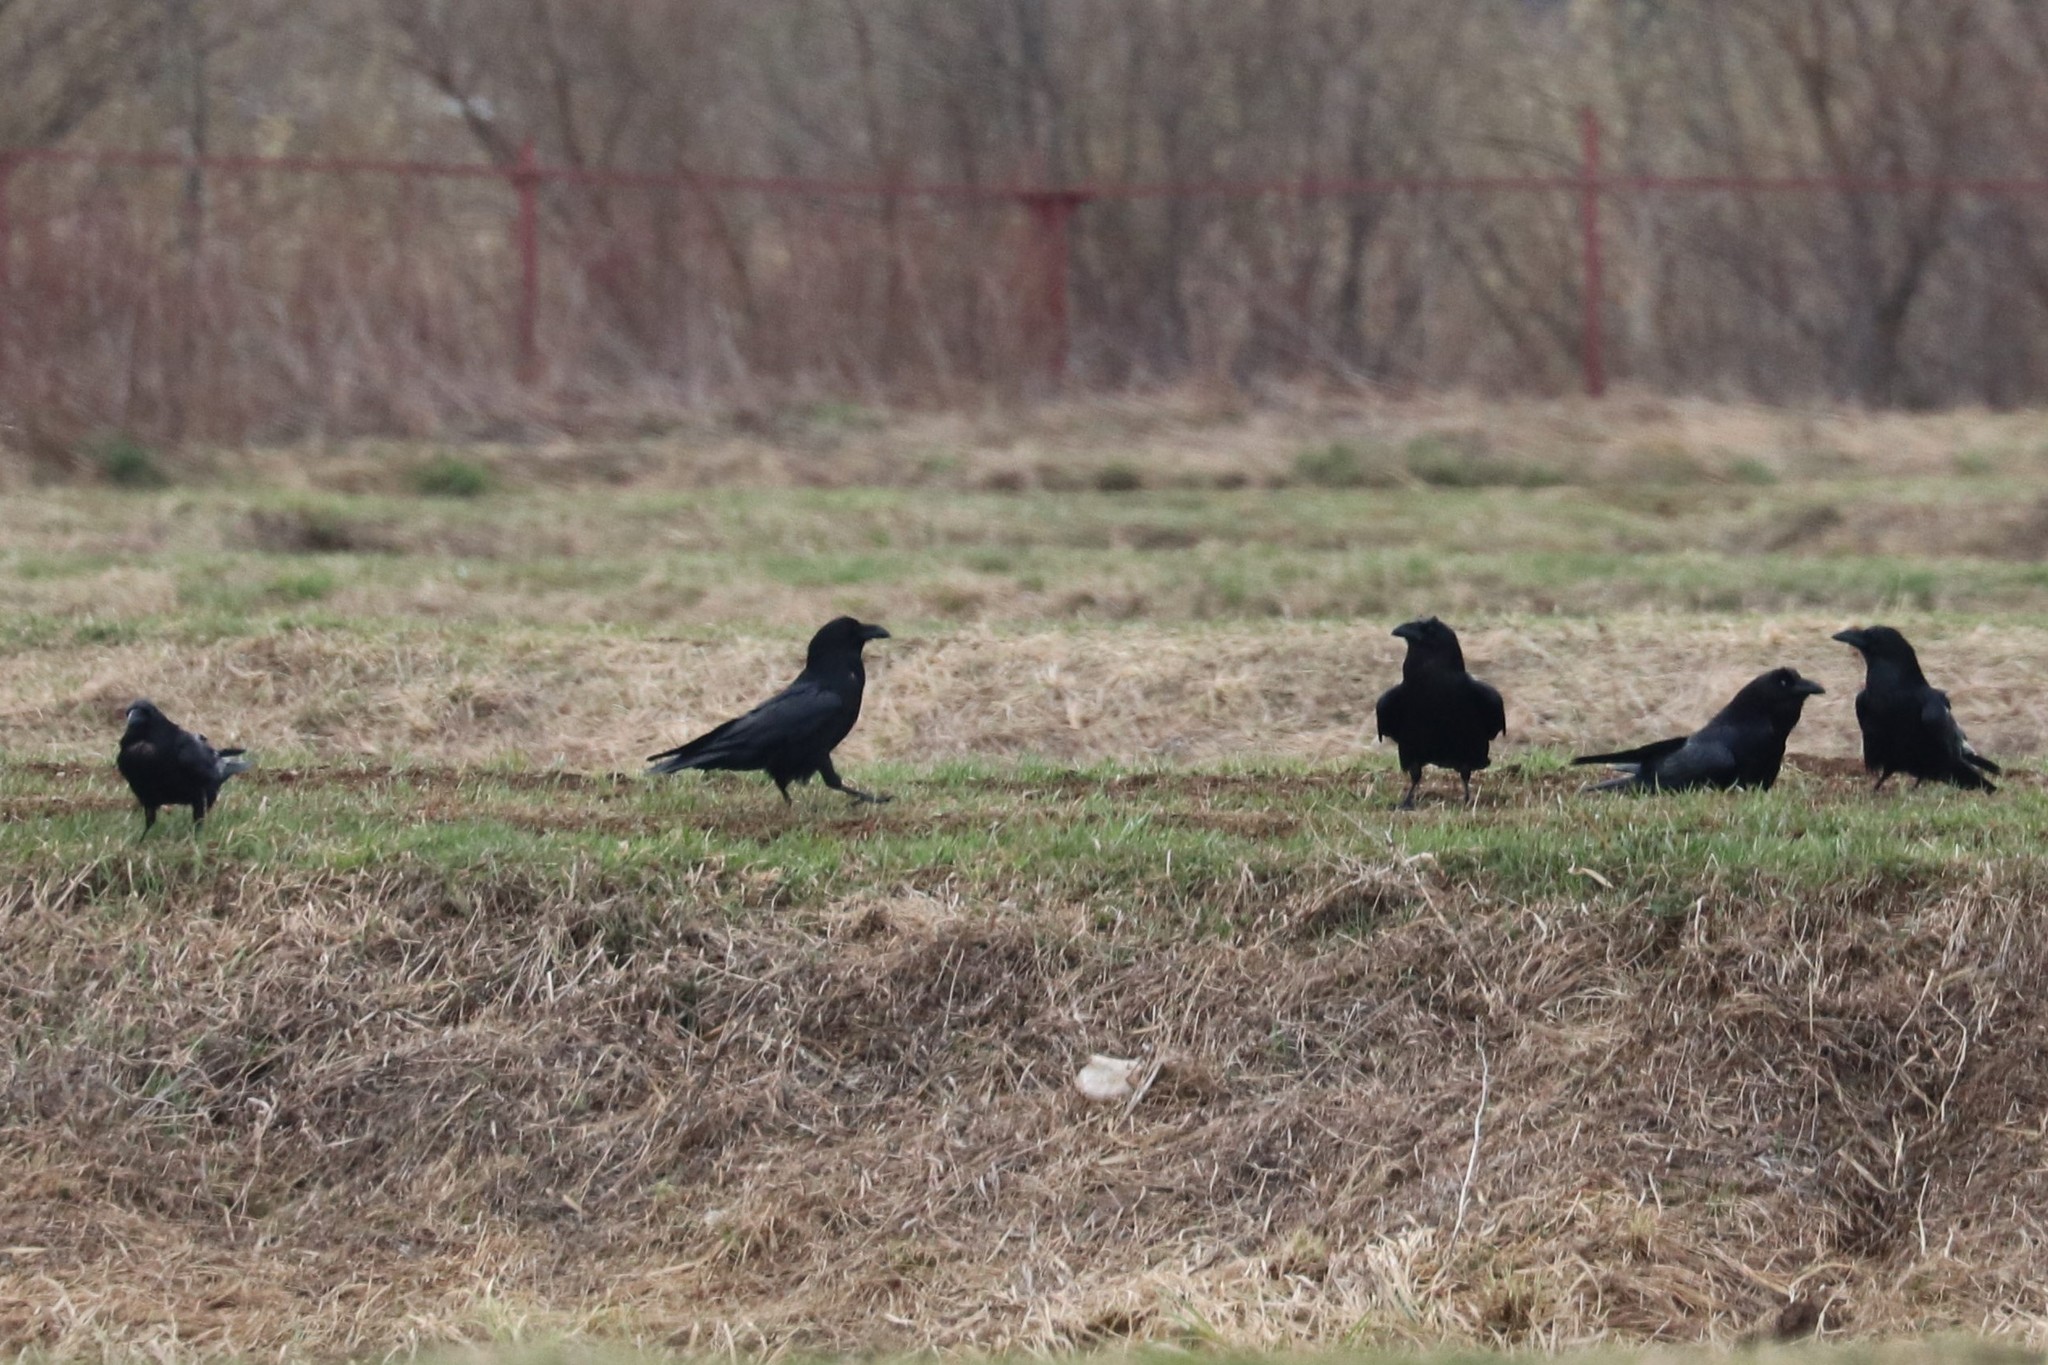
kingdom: Animalia
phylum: Chordata
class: Aves
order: Passeriformes
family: Corvidae
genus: Corvus
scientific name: Corvus corax
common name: Common raven
